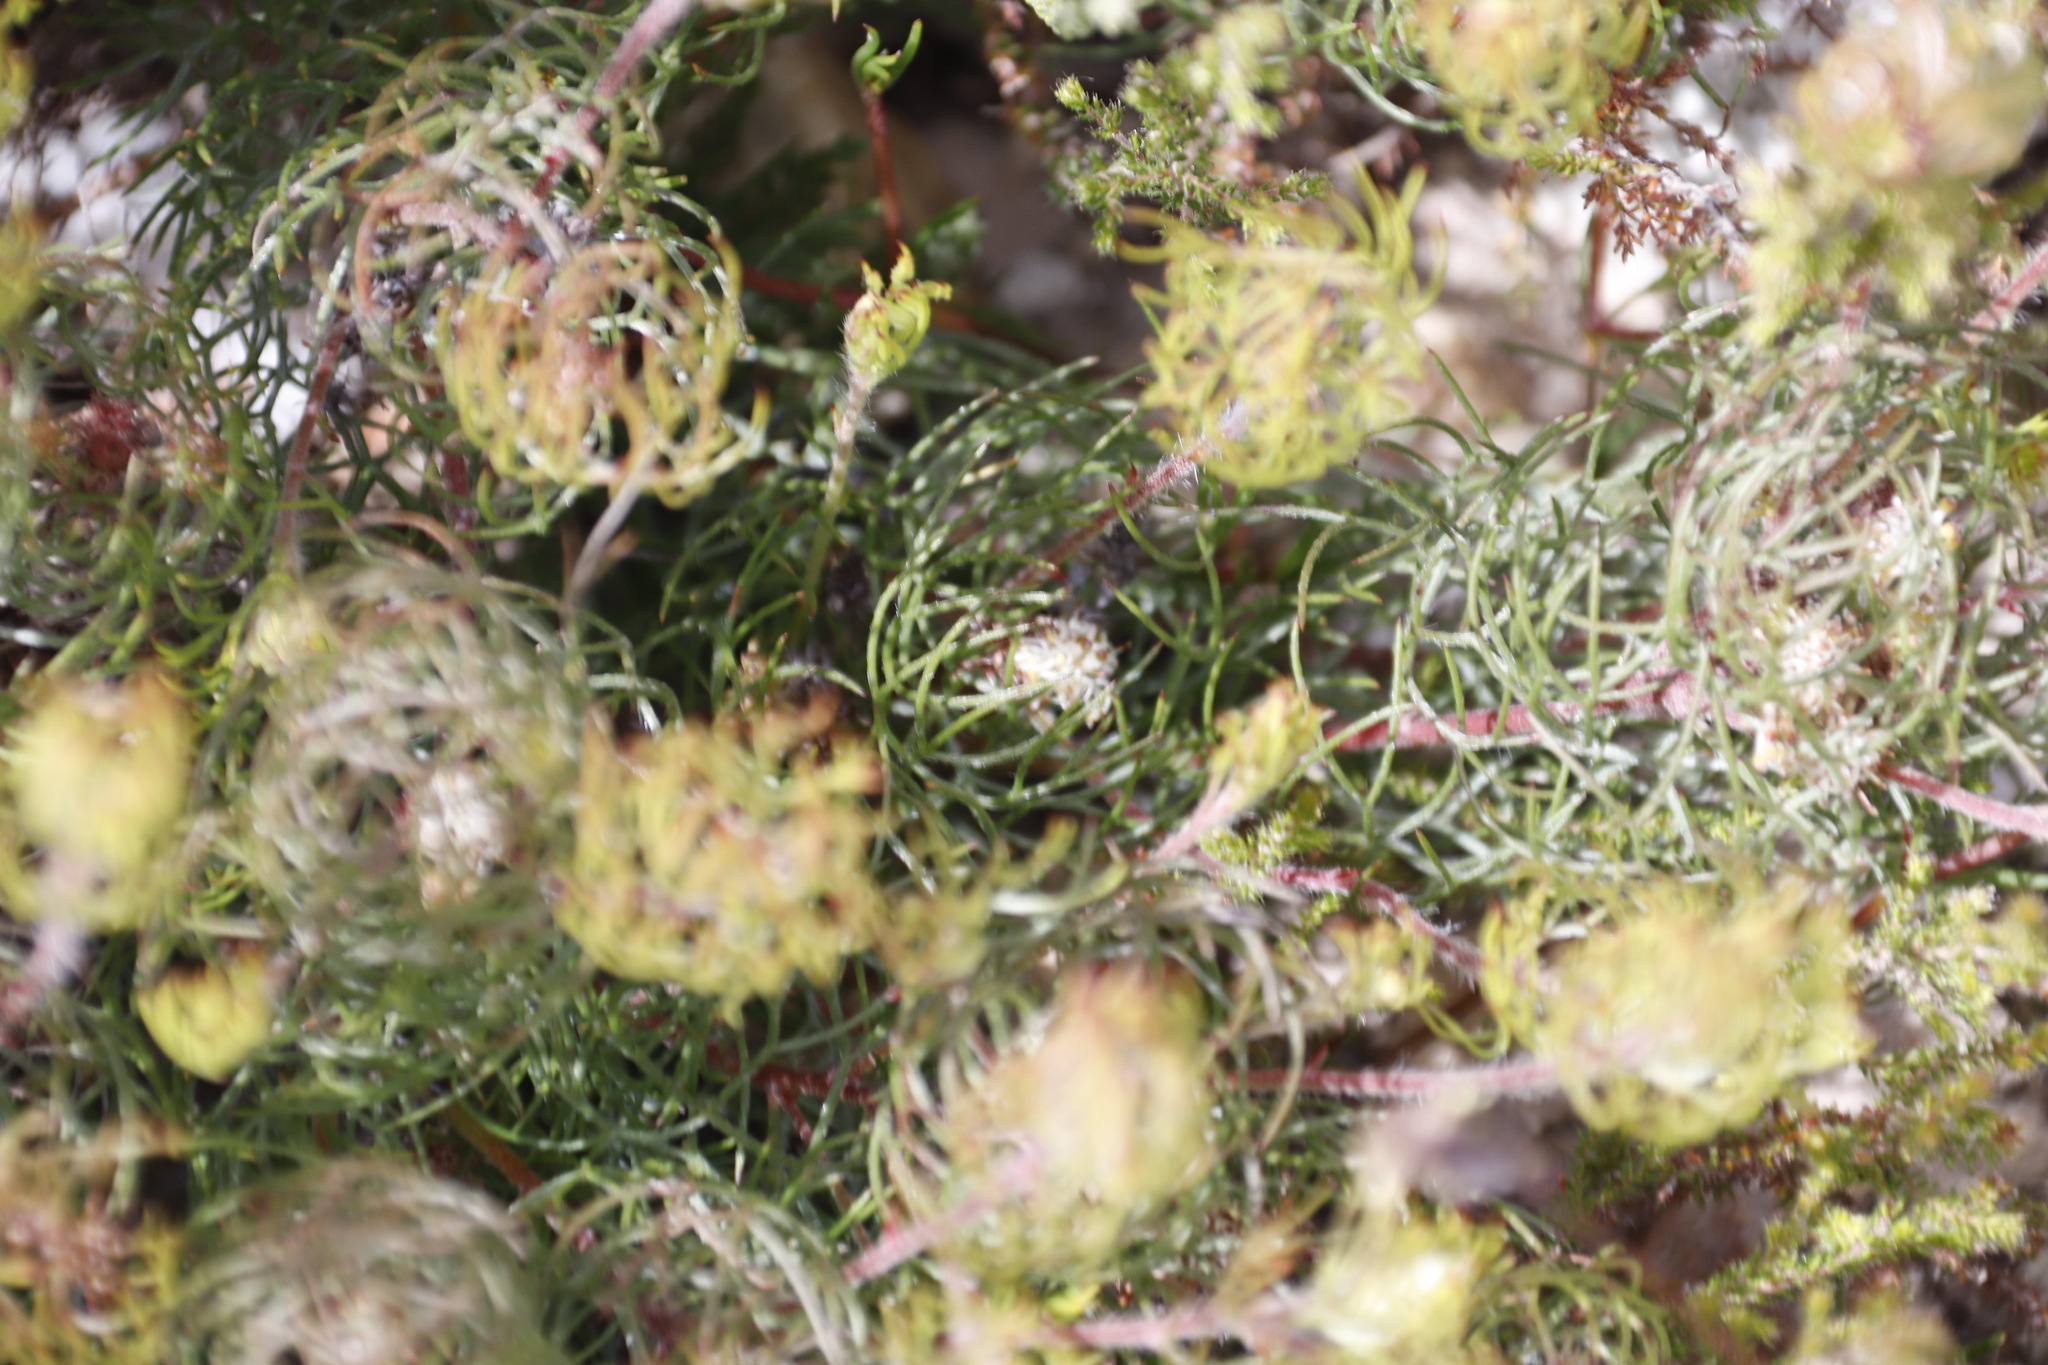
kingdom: Plantae
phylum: Tracheophyta
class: Magnoliopsida
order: Proteales
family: Proteaceae
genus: Serruria
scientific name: Serruria inconspicua
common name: Cryptic spiderhead
